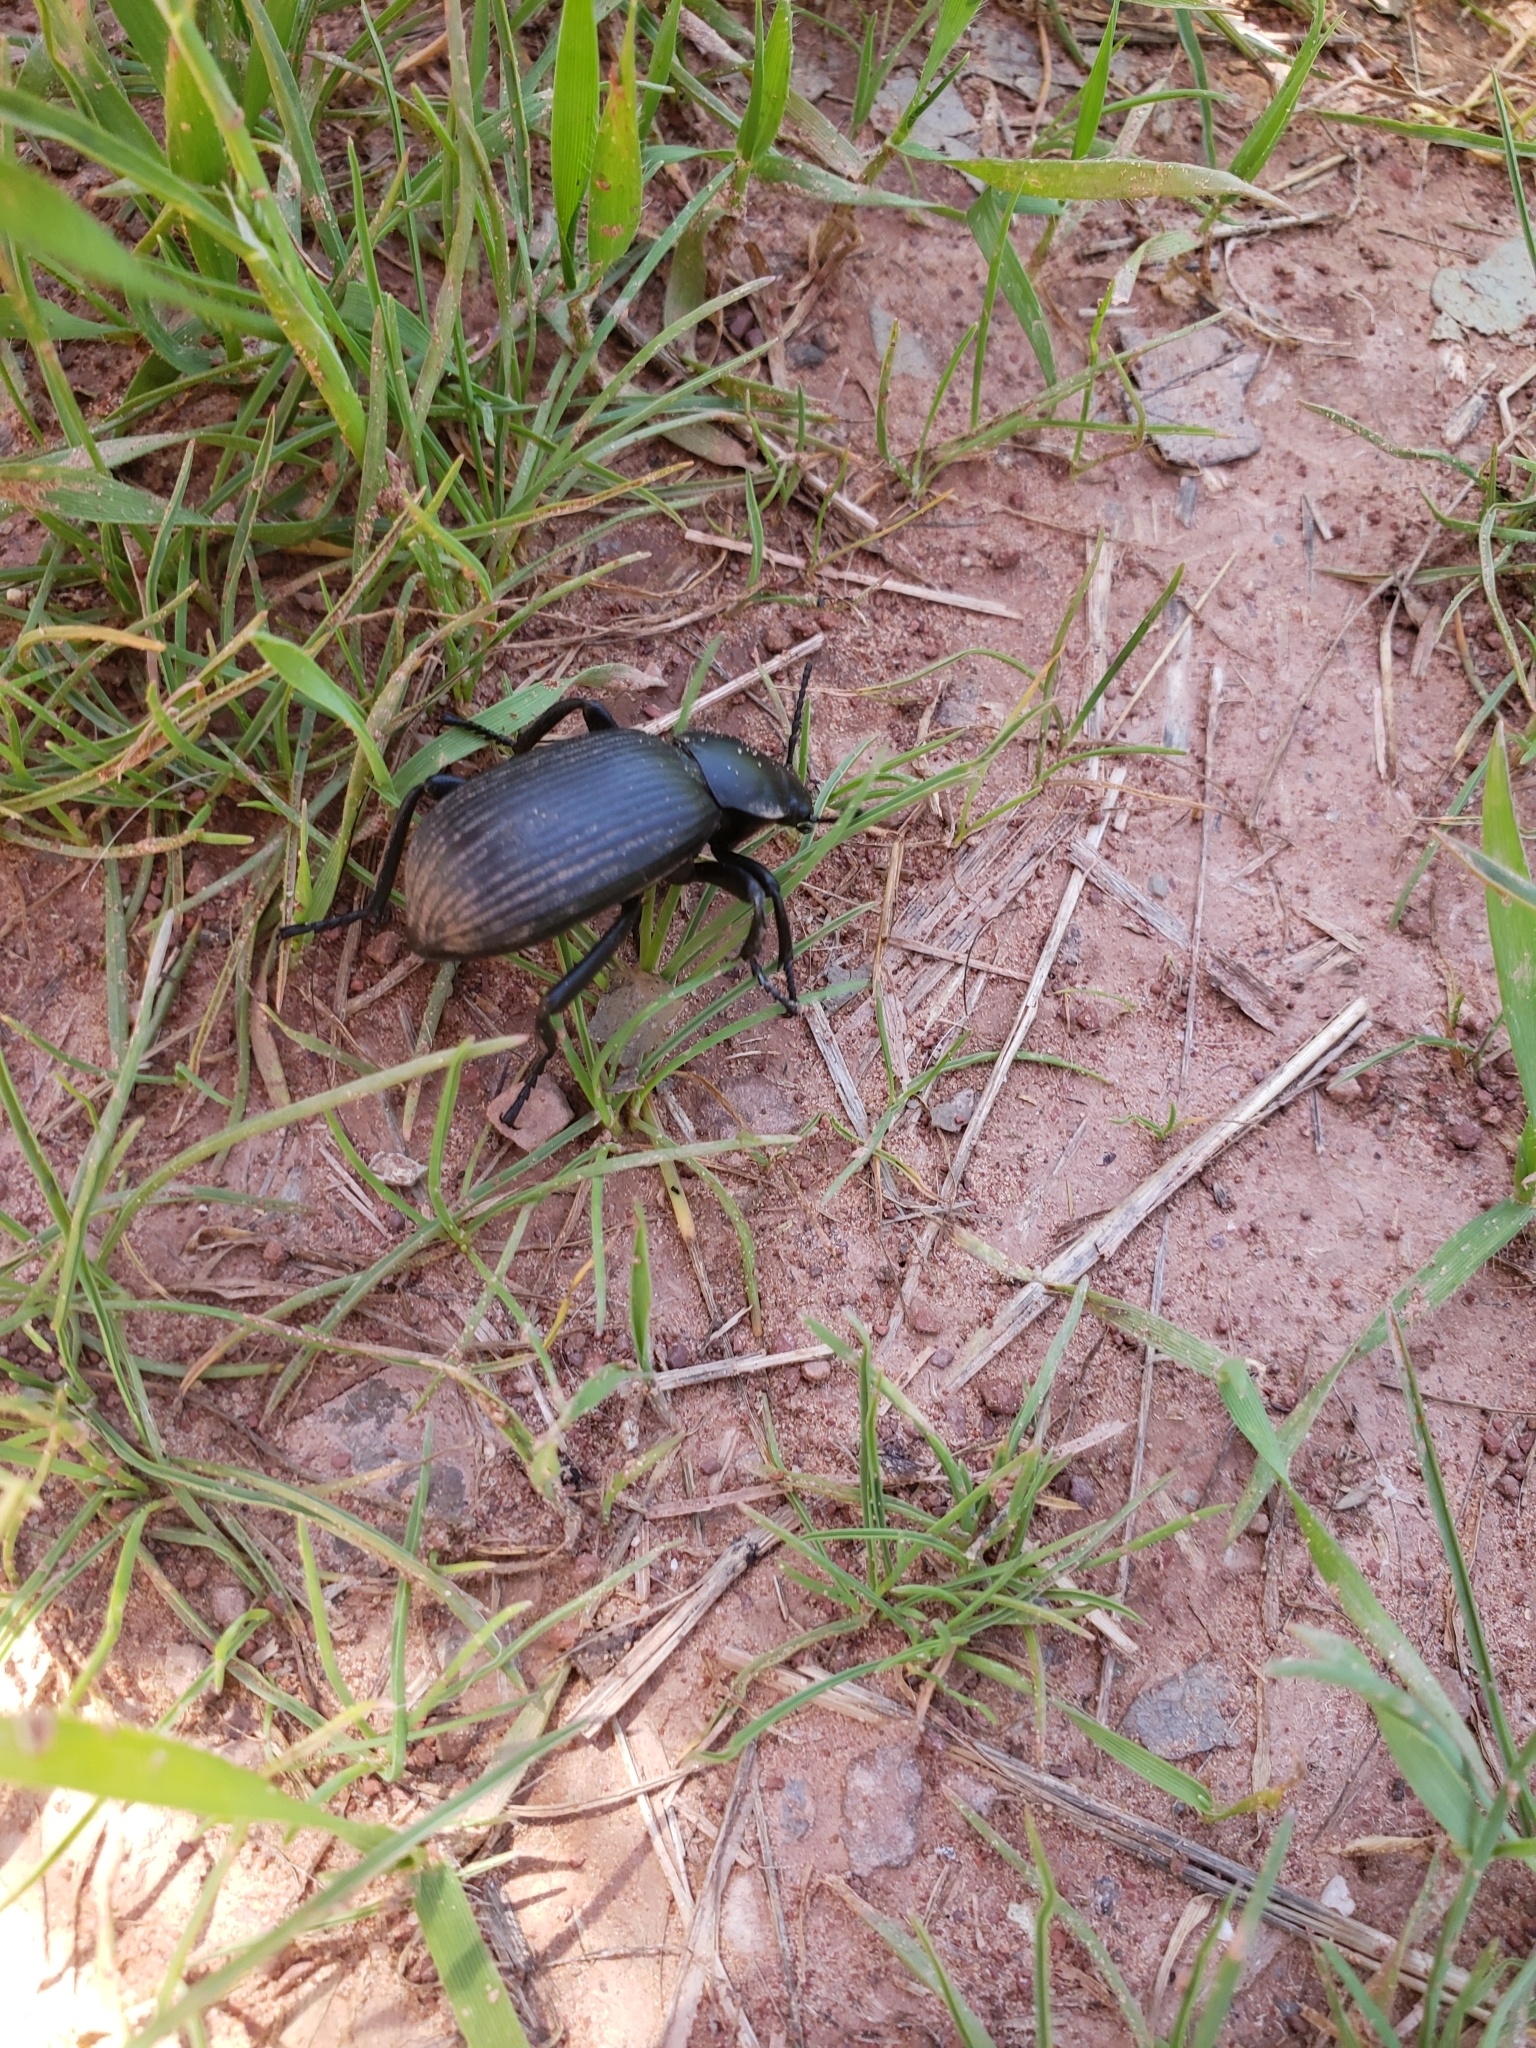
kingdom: Animalia
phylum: Arthropoda
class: Insecta
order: Coleoptera
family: Tenebrionidae
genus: Eleodes
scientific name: Eleodes obscura
